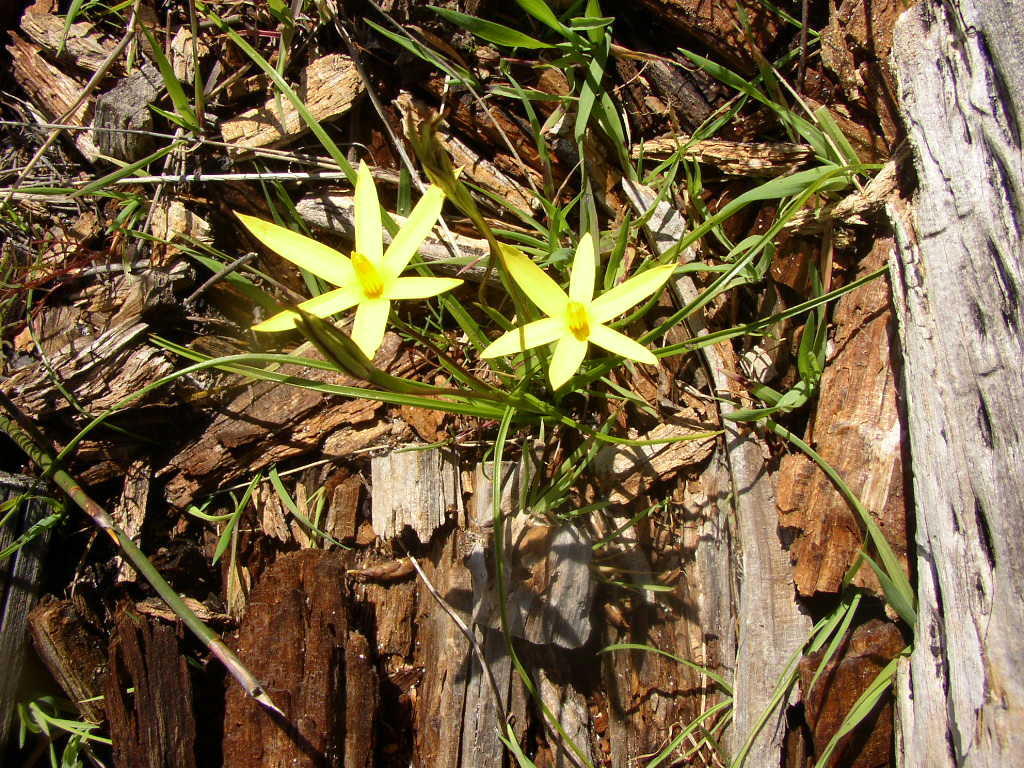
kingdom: Plantae
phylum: Tracheophyta
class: Liliopsida
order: Asparagales
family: Hypoxidaceae
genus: Pauridia
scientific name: Pauridia capensis
